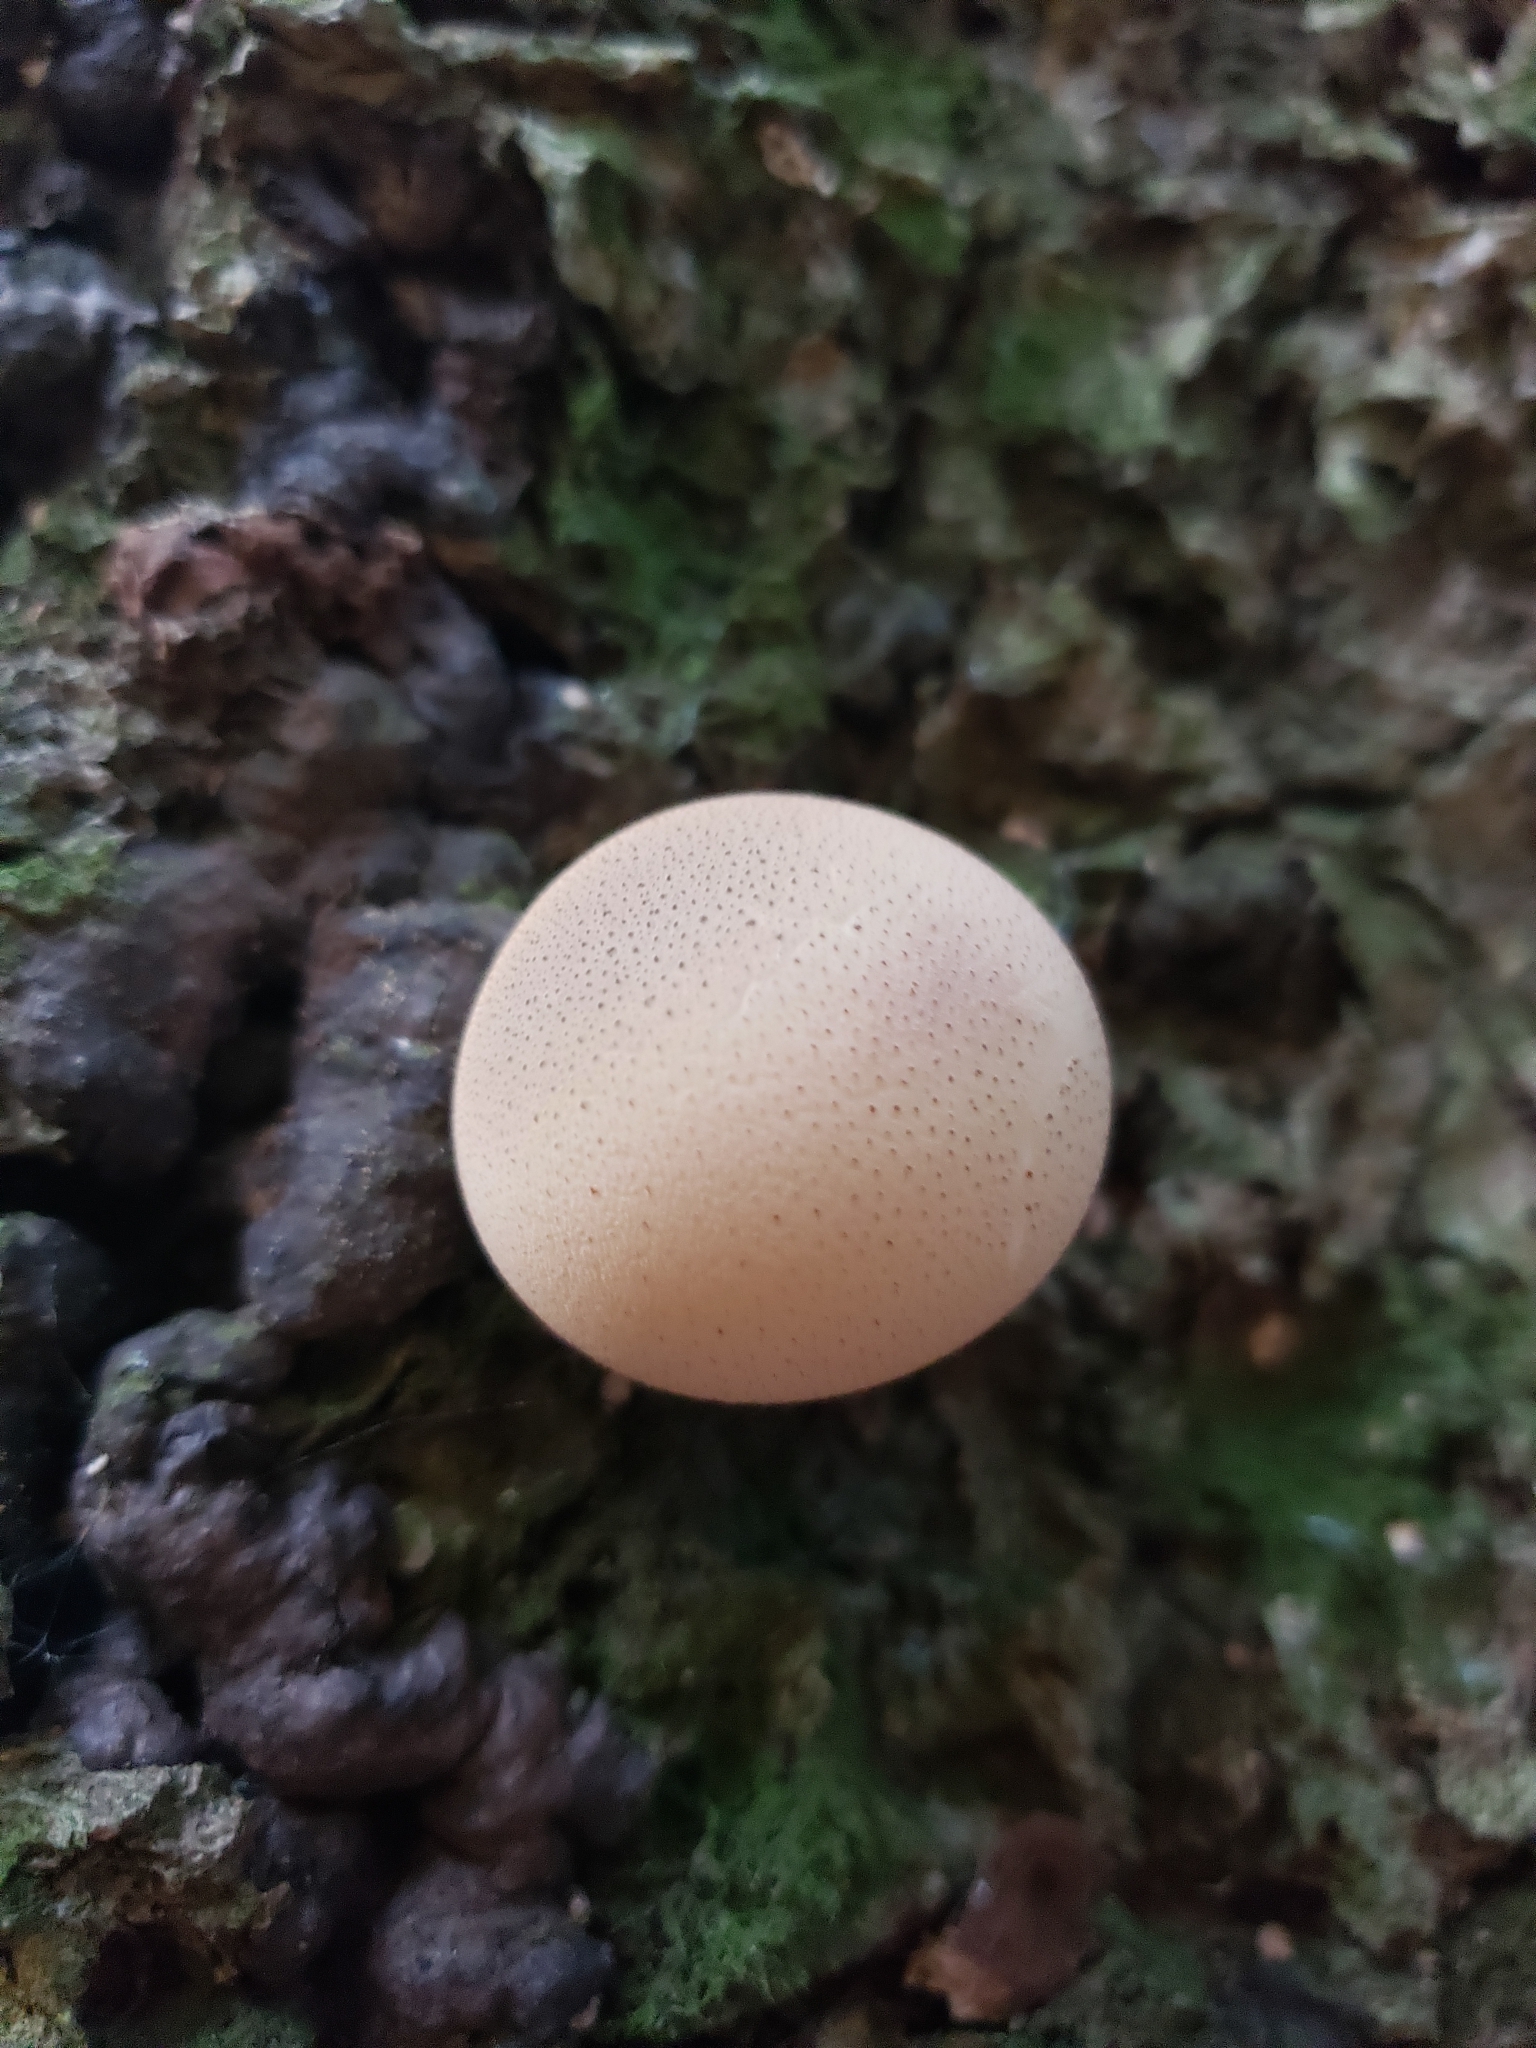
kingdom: Fungi
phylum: Basidiomycota
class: Agaricomycetes
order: Agaricales
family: Lycoperdaceae
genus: Apioperdon
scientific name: Apioperdon pyriforme
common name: Pear-shaped puffball
